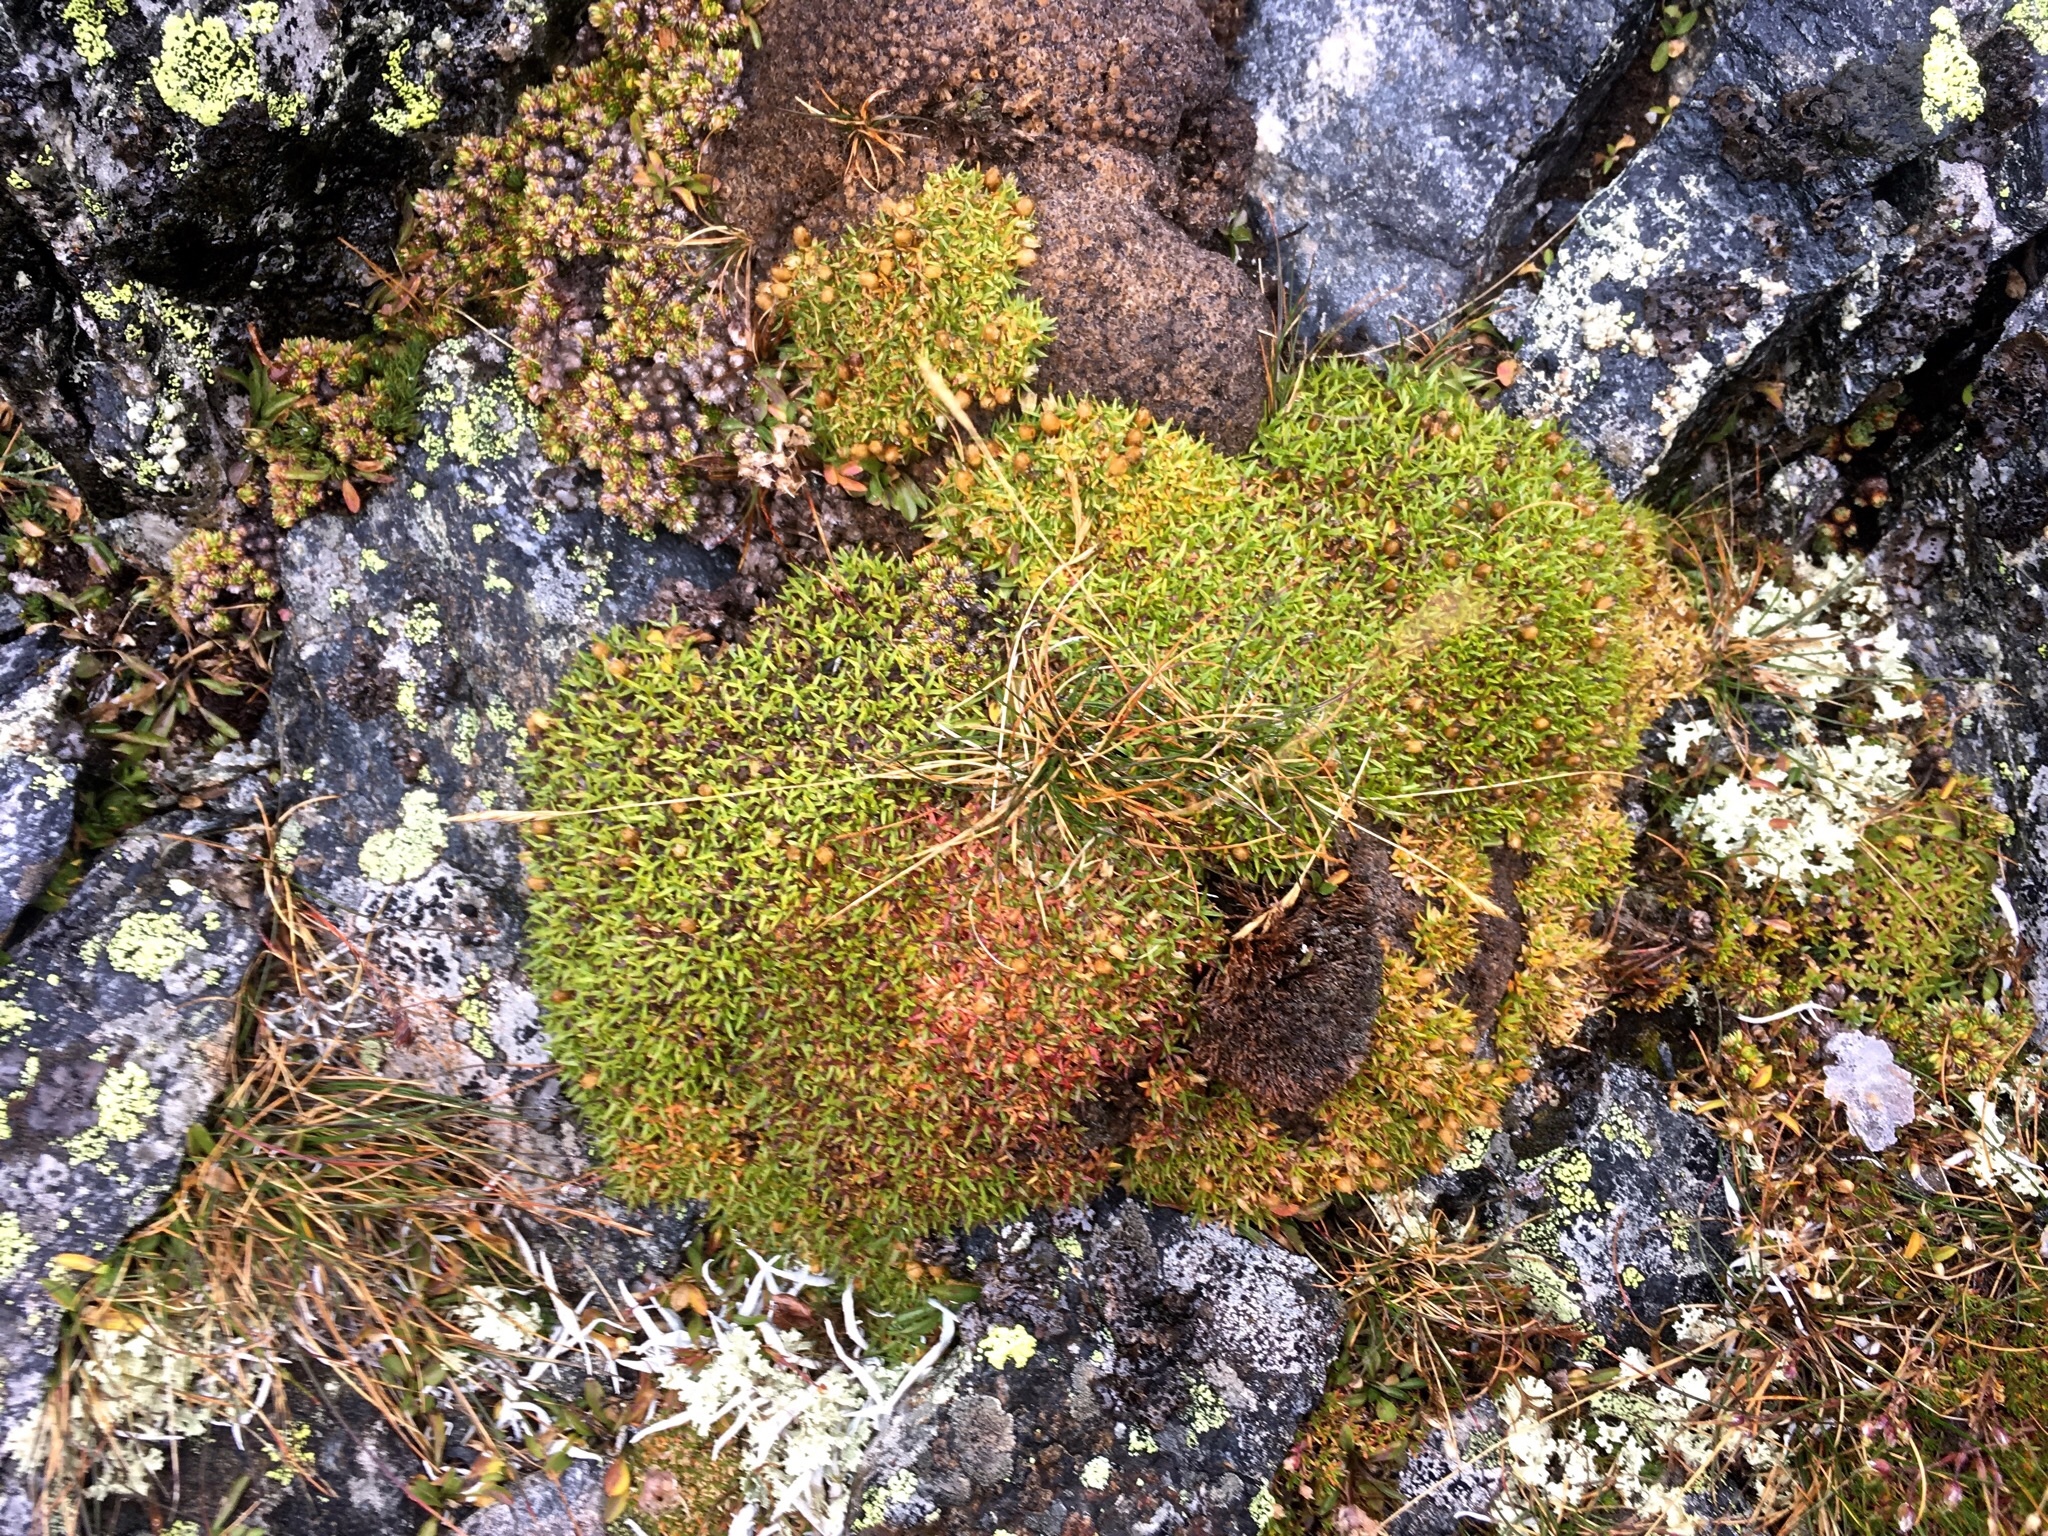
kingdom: Plantae
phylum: Tracheophyta
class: Magnoliopsida
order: Caryophyllales
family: Caryophyllaceae
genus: Silene
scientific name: Silene acaulis
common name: Moss campion
